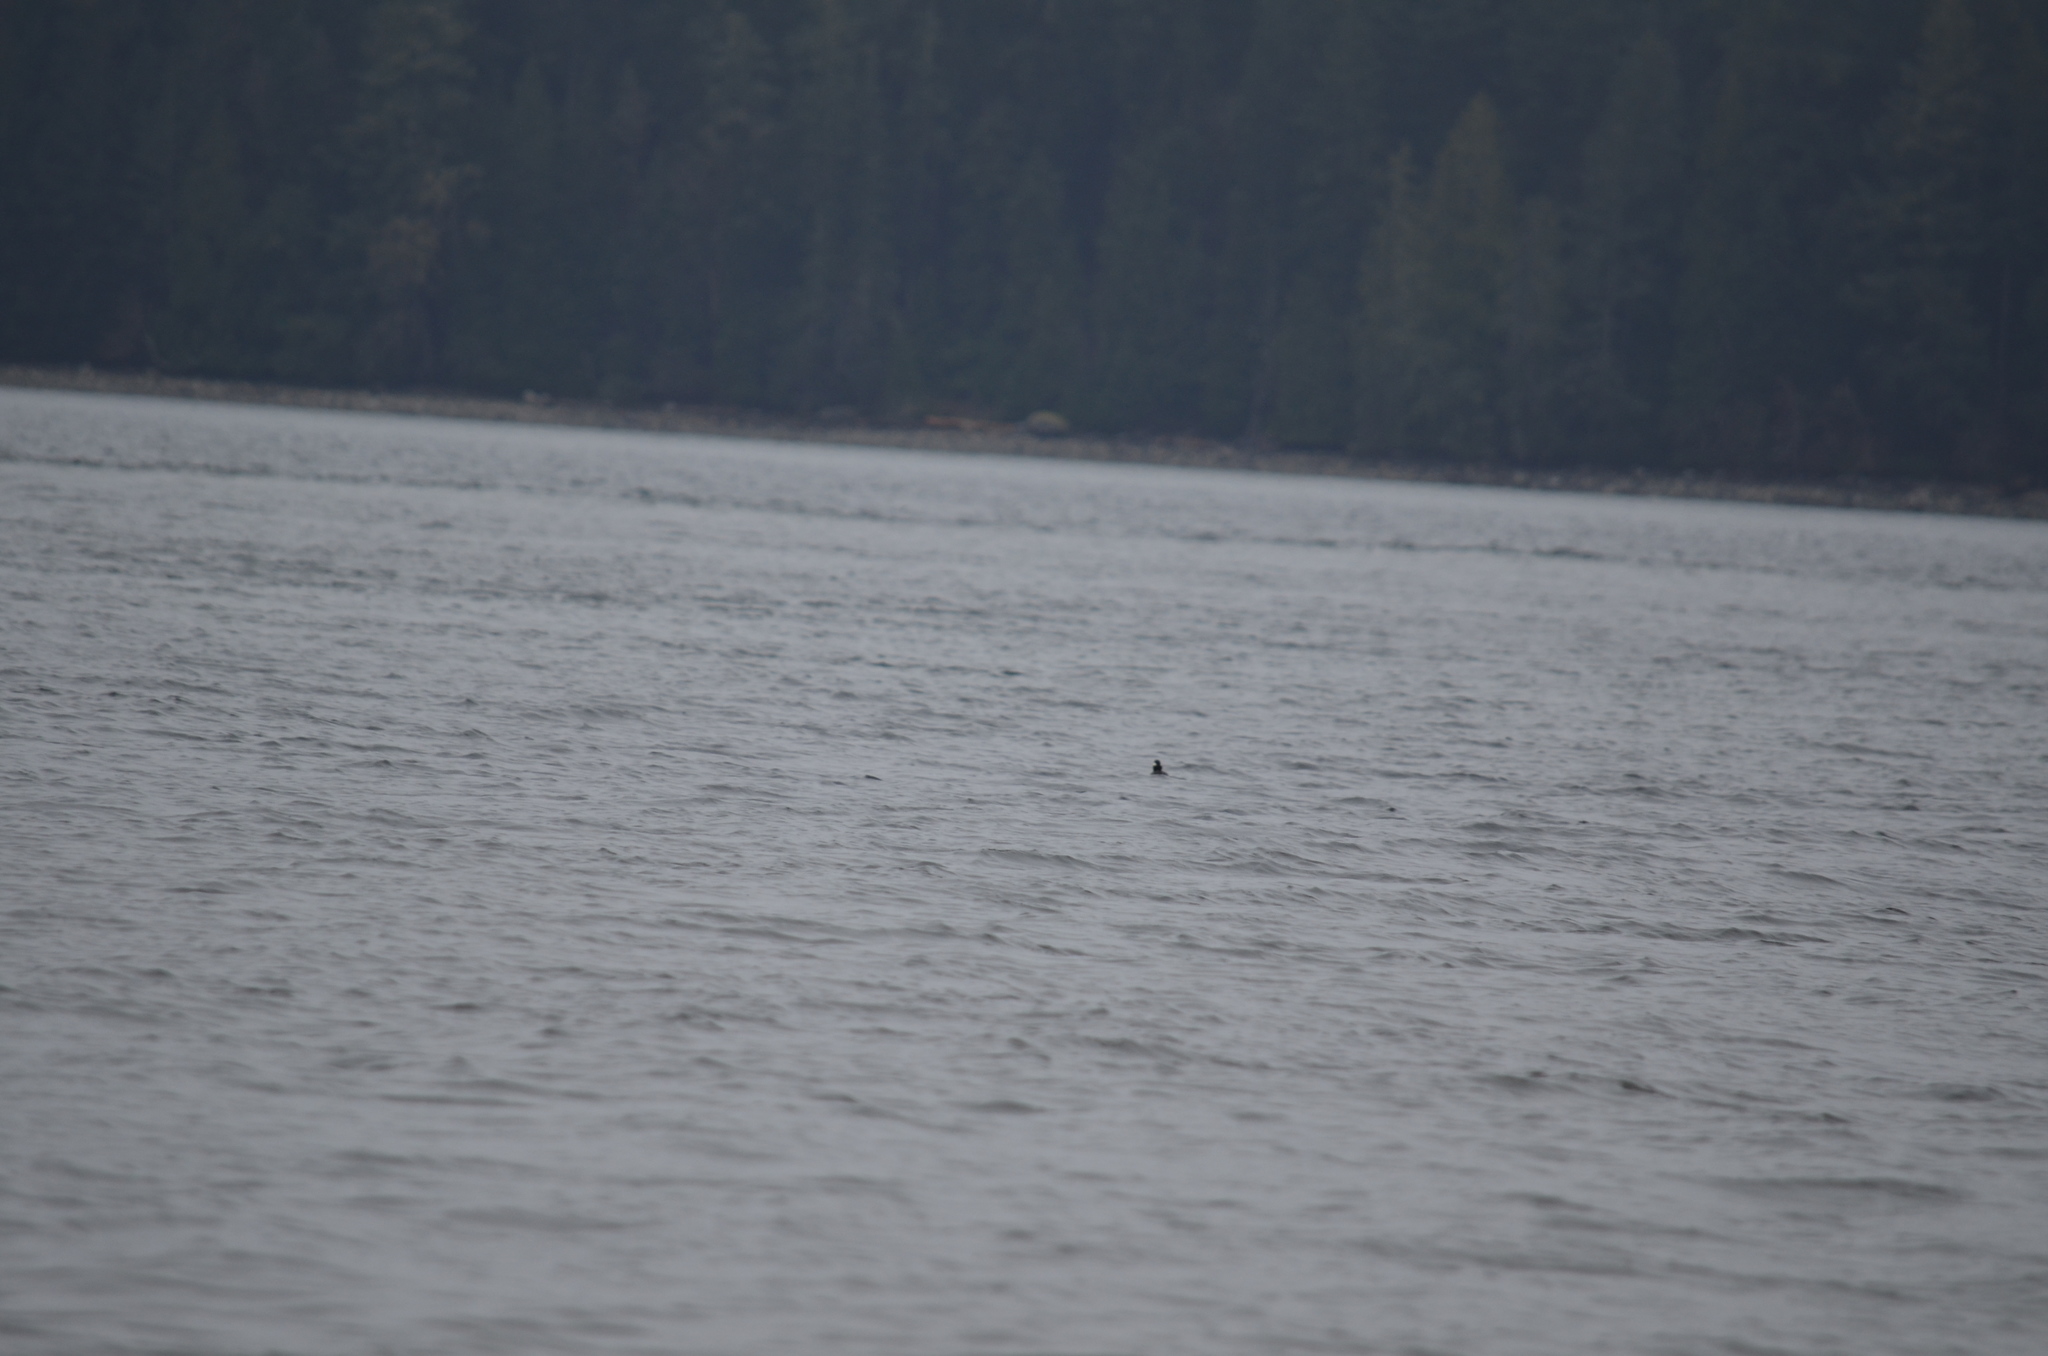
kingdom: Animalia
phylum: Chordata
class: Aves
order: Anseriformes
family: Anatidae
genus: Bucephala
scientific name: Bucephala albeola
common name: Bufflehead
